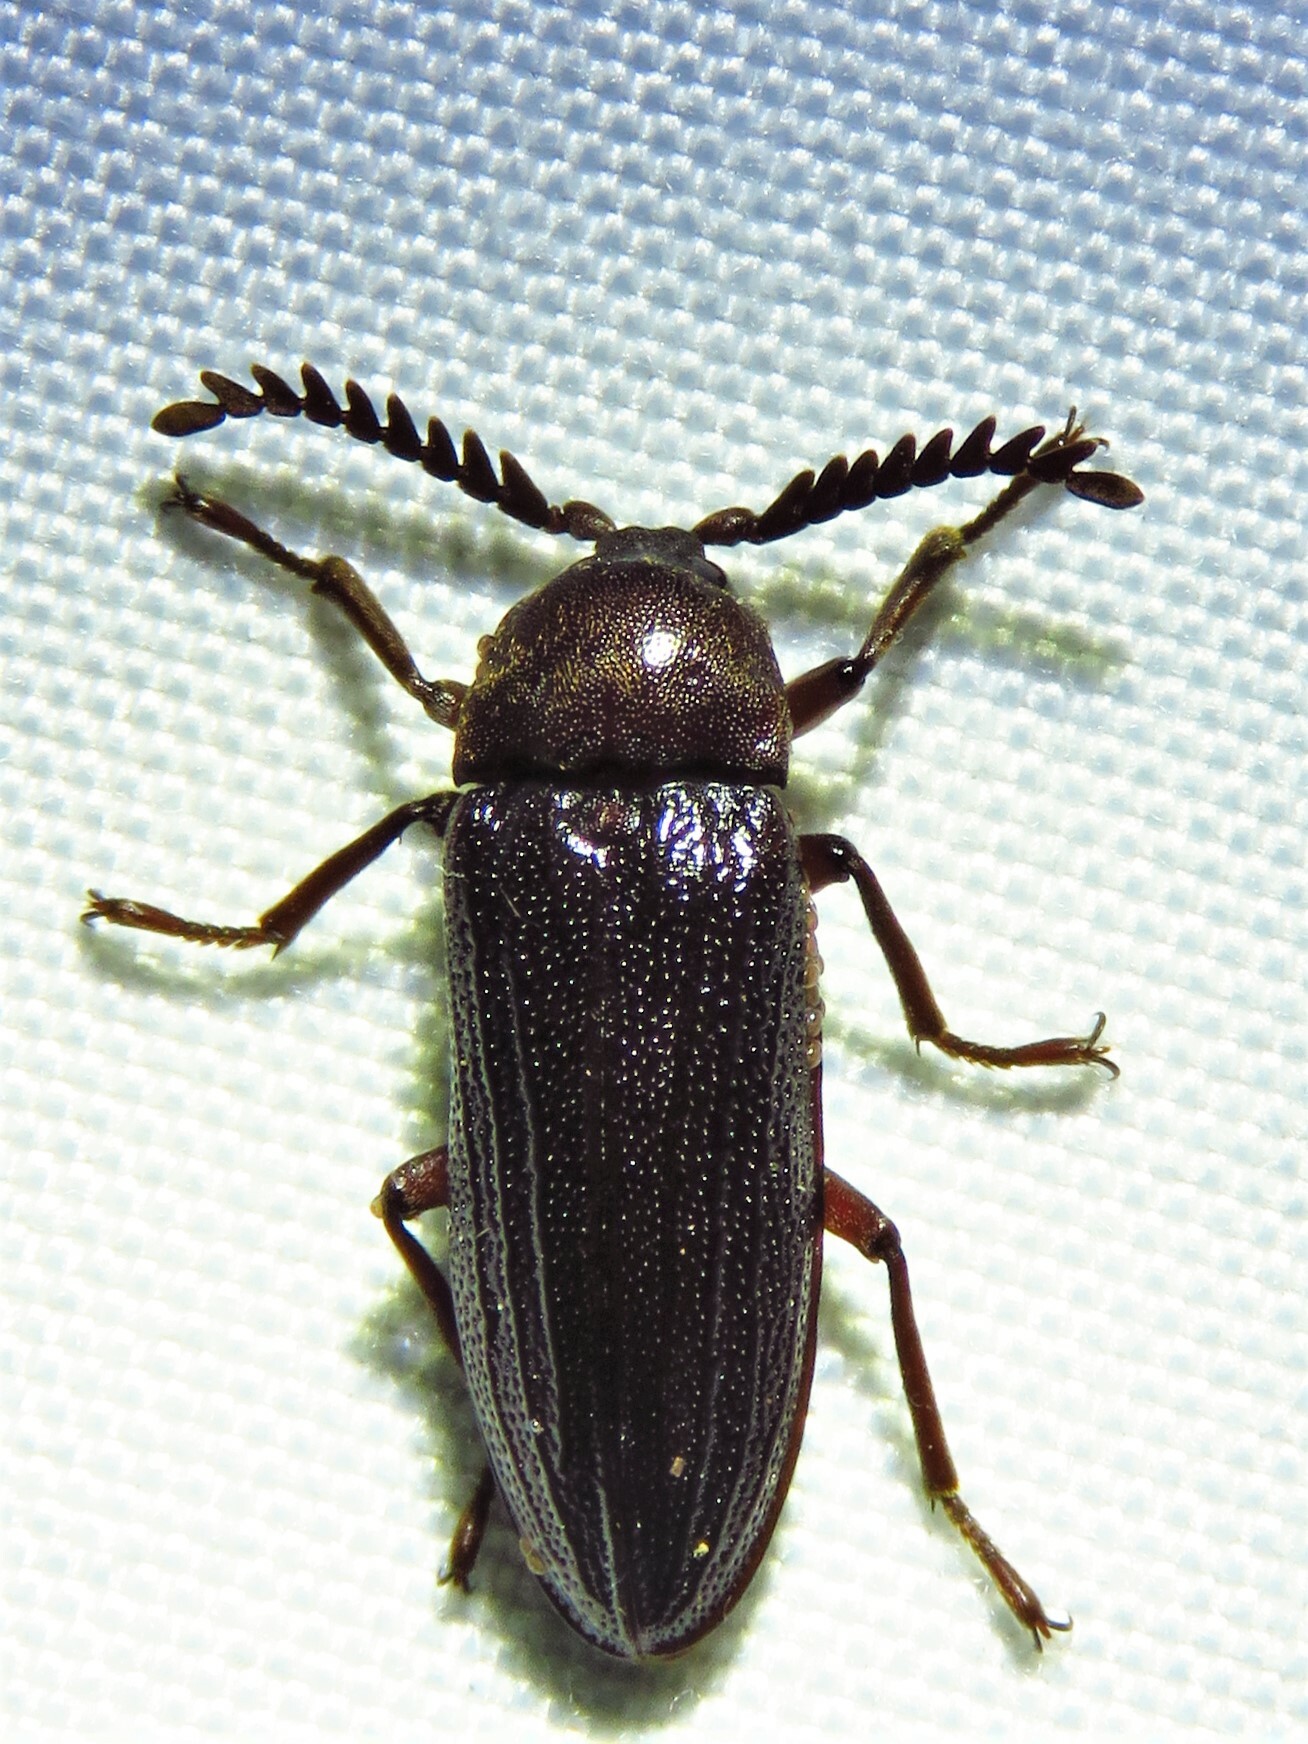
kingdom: Animalia
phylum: Arthropoda
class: Insecta
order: Coleoptera
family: Callirhipidae
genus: Zenoa
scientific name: Zenoa picea
